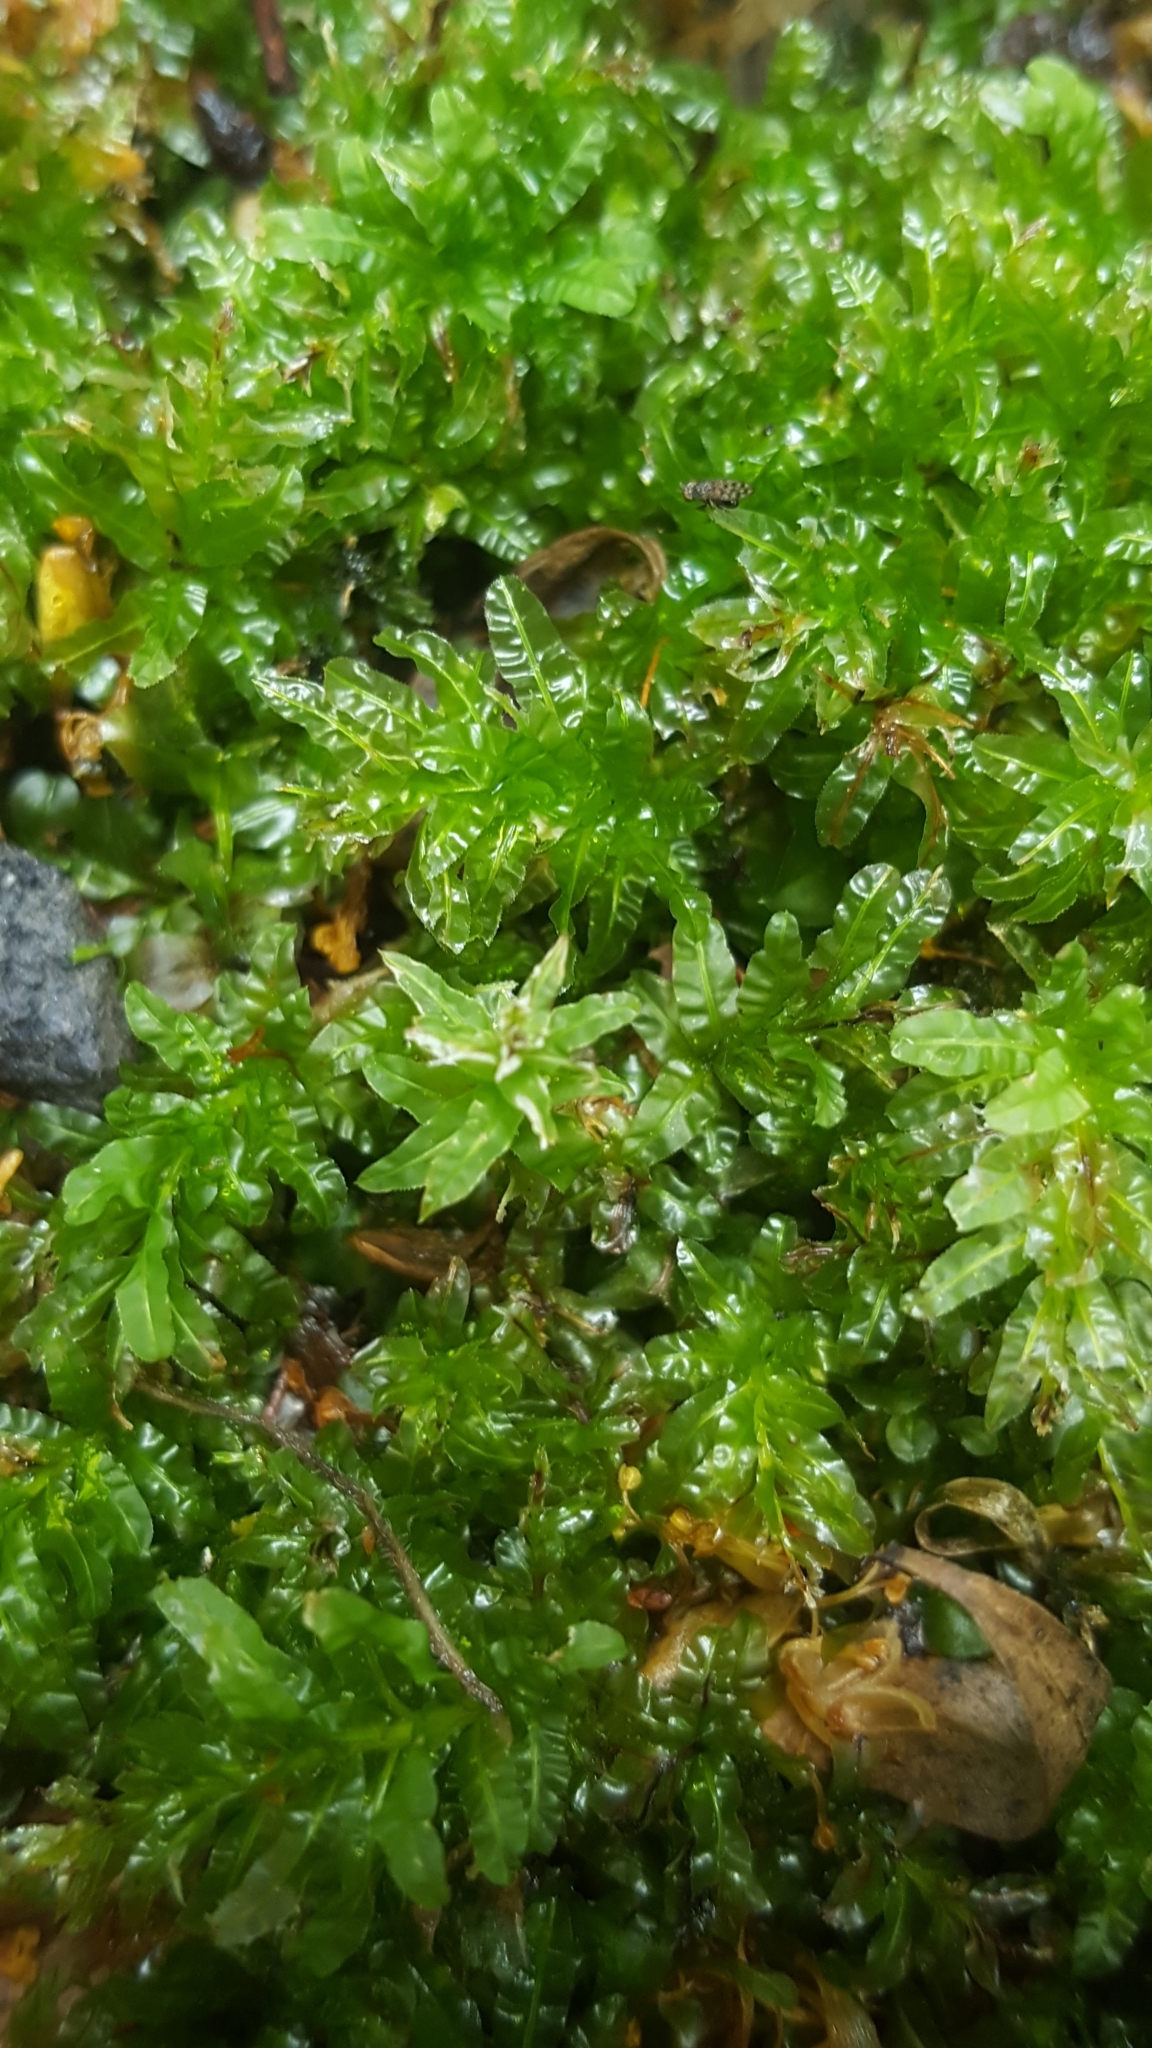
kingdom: Plantae
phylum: Bryophyta
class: Bryopsida
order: Bryales
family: Mniaceae
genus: Plagiomnium
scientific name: Plagiomnium undulatum
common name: Hart's-tongue thyme-moss
